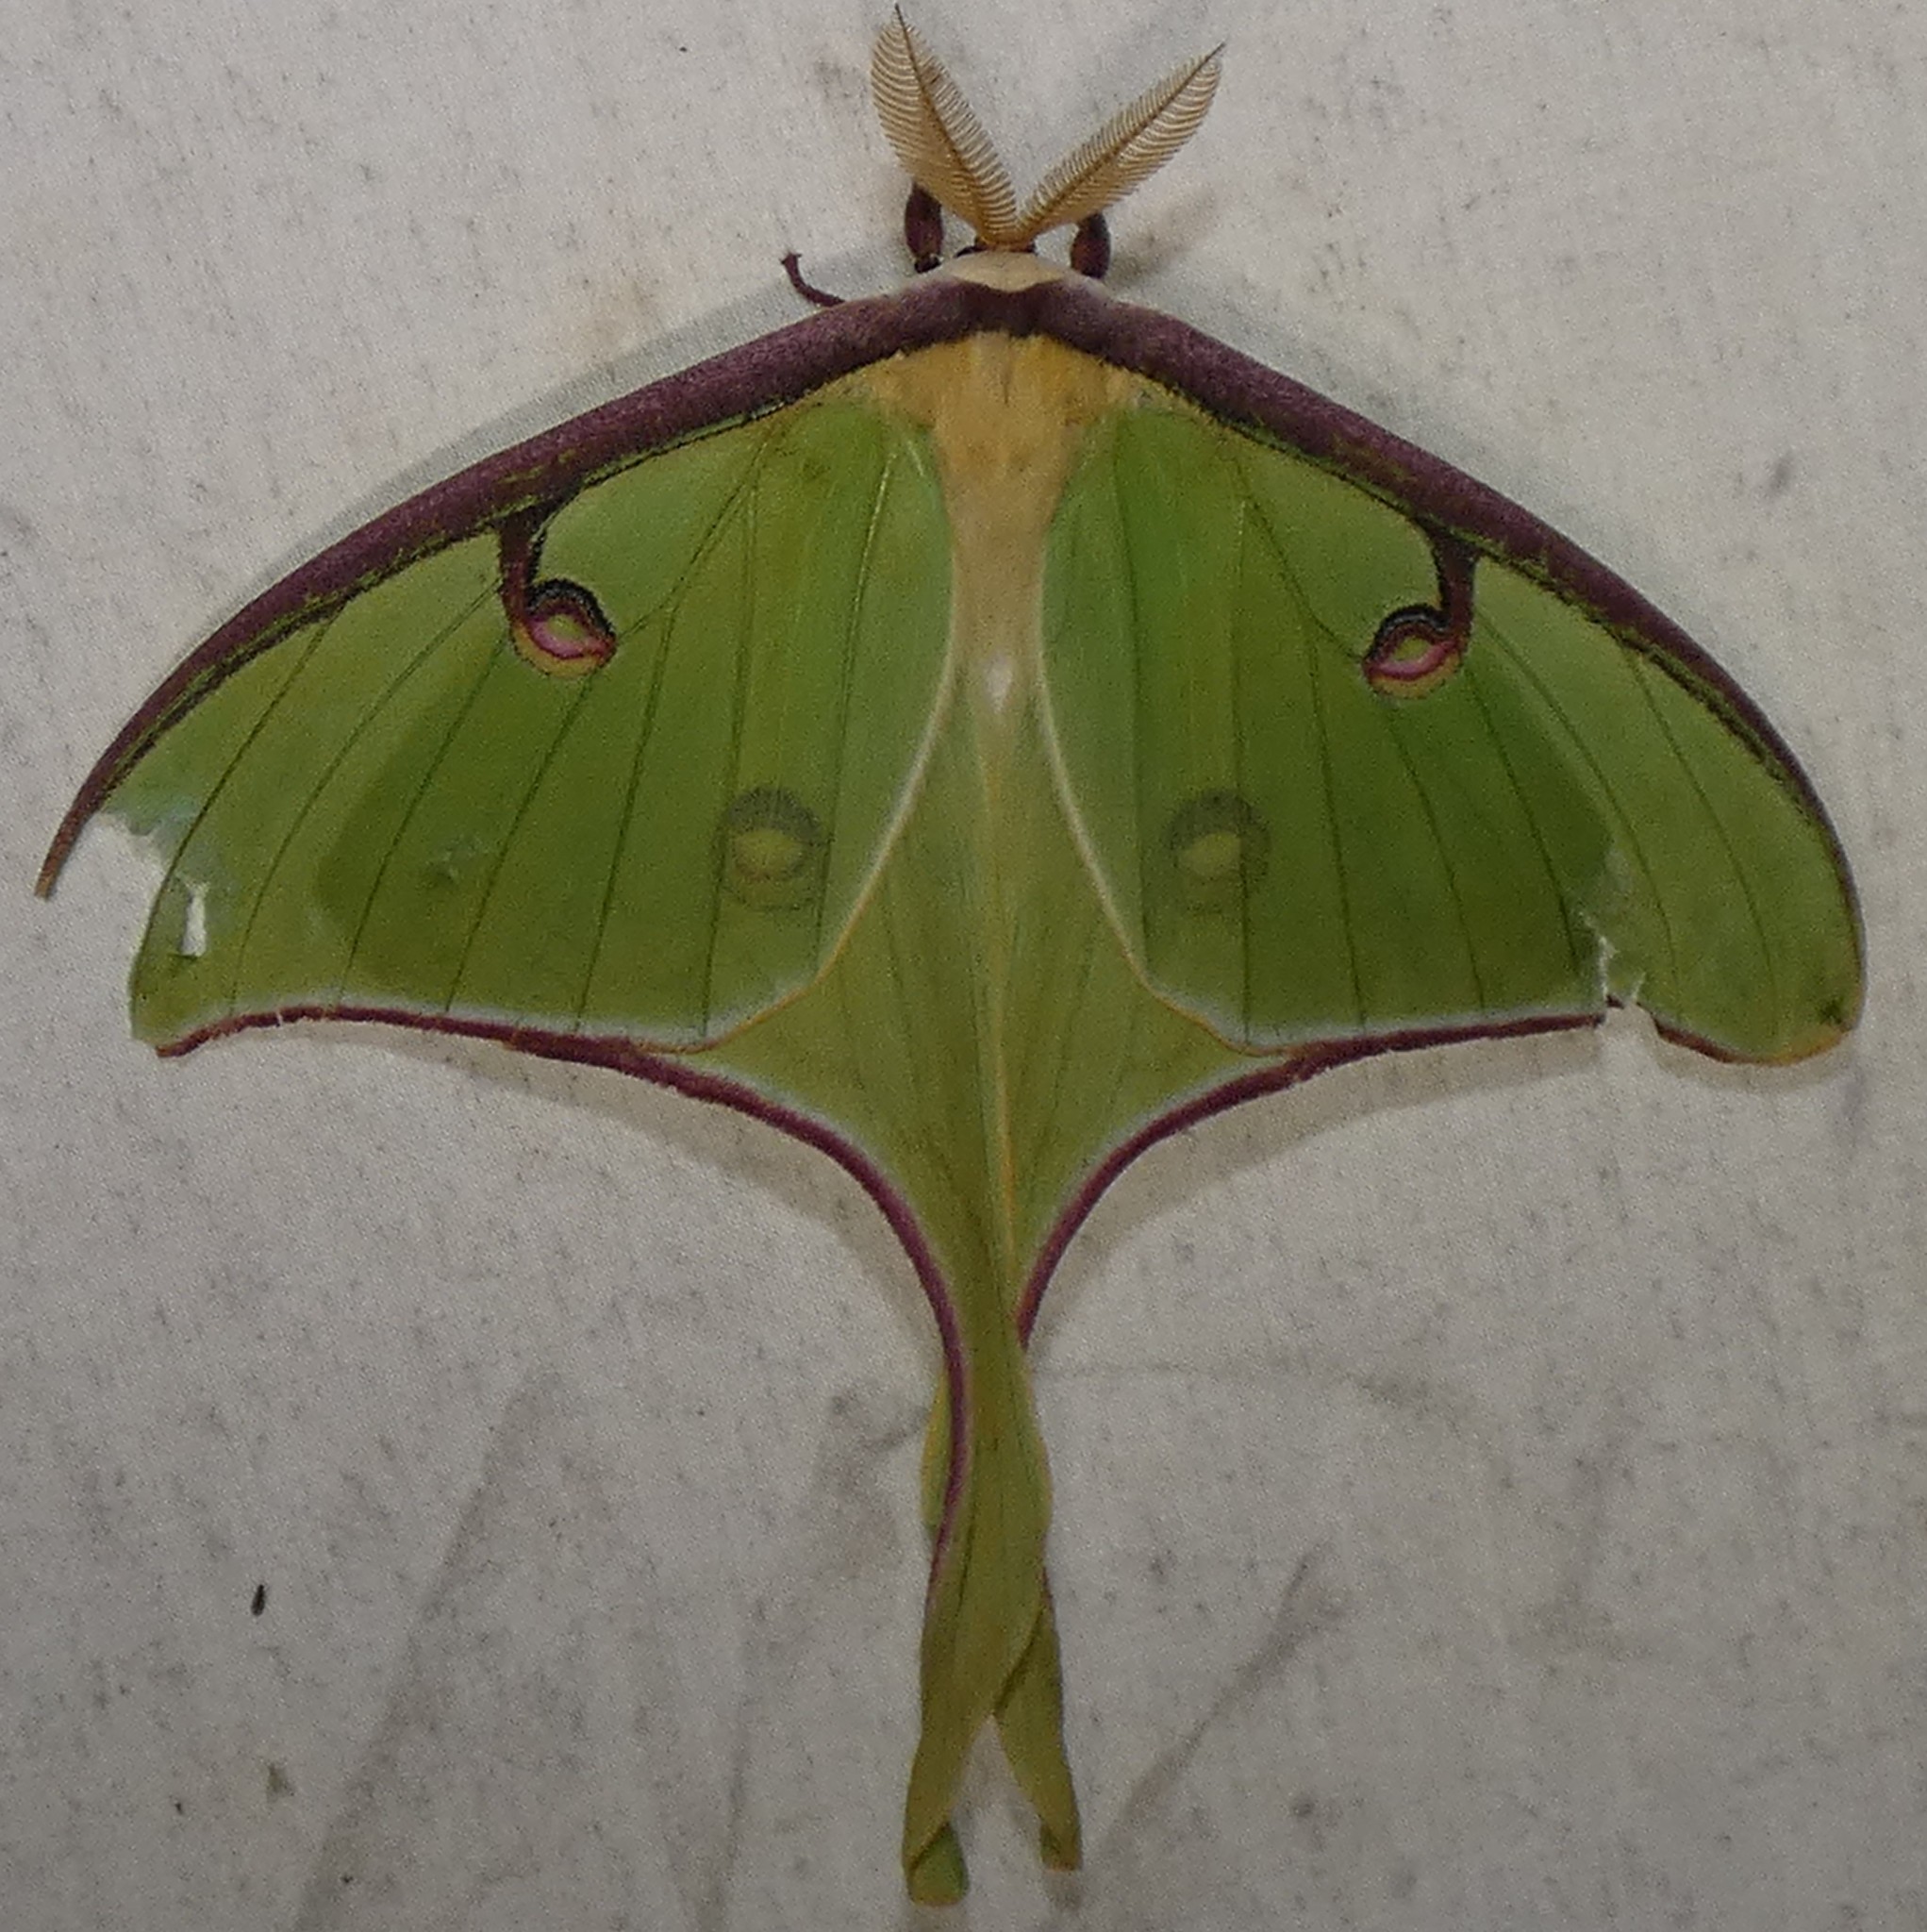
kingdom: Animalia
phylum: Arthropoda
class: Insecta
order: Lepidoptera
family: Saturniidae
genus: Actias
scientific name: Actias luna
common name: Luna moth
